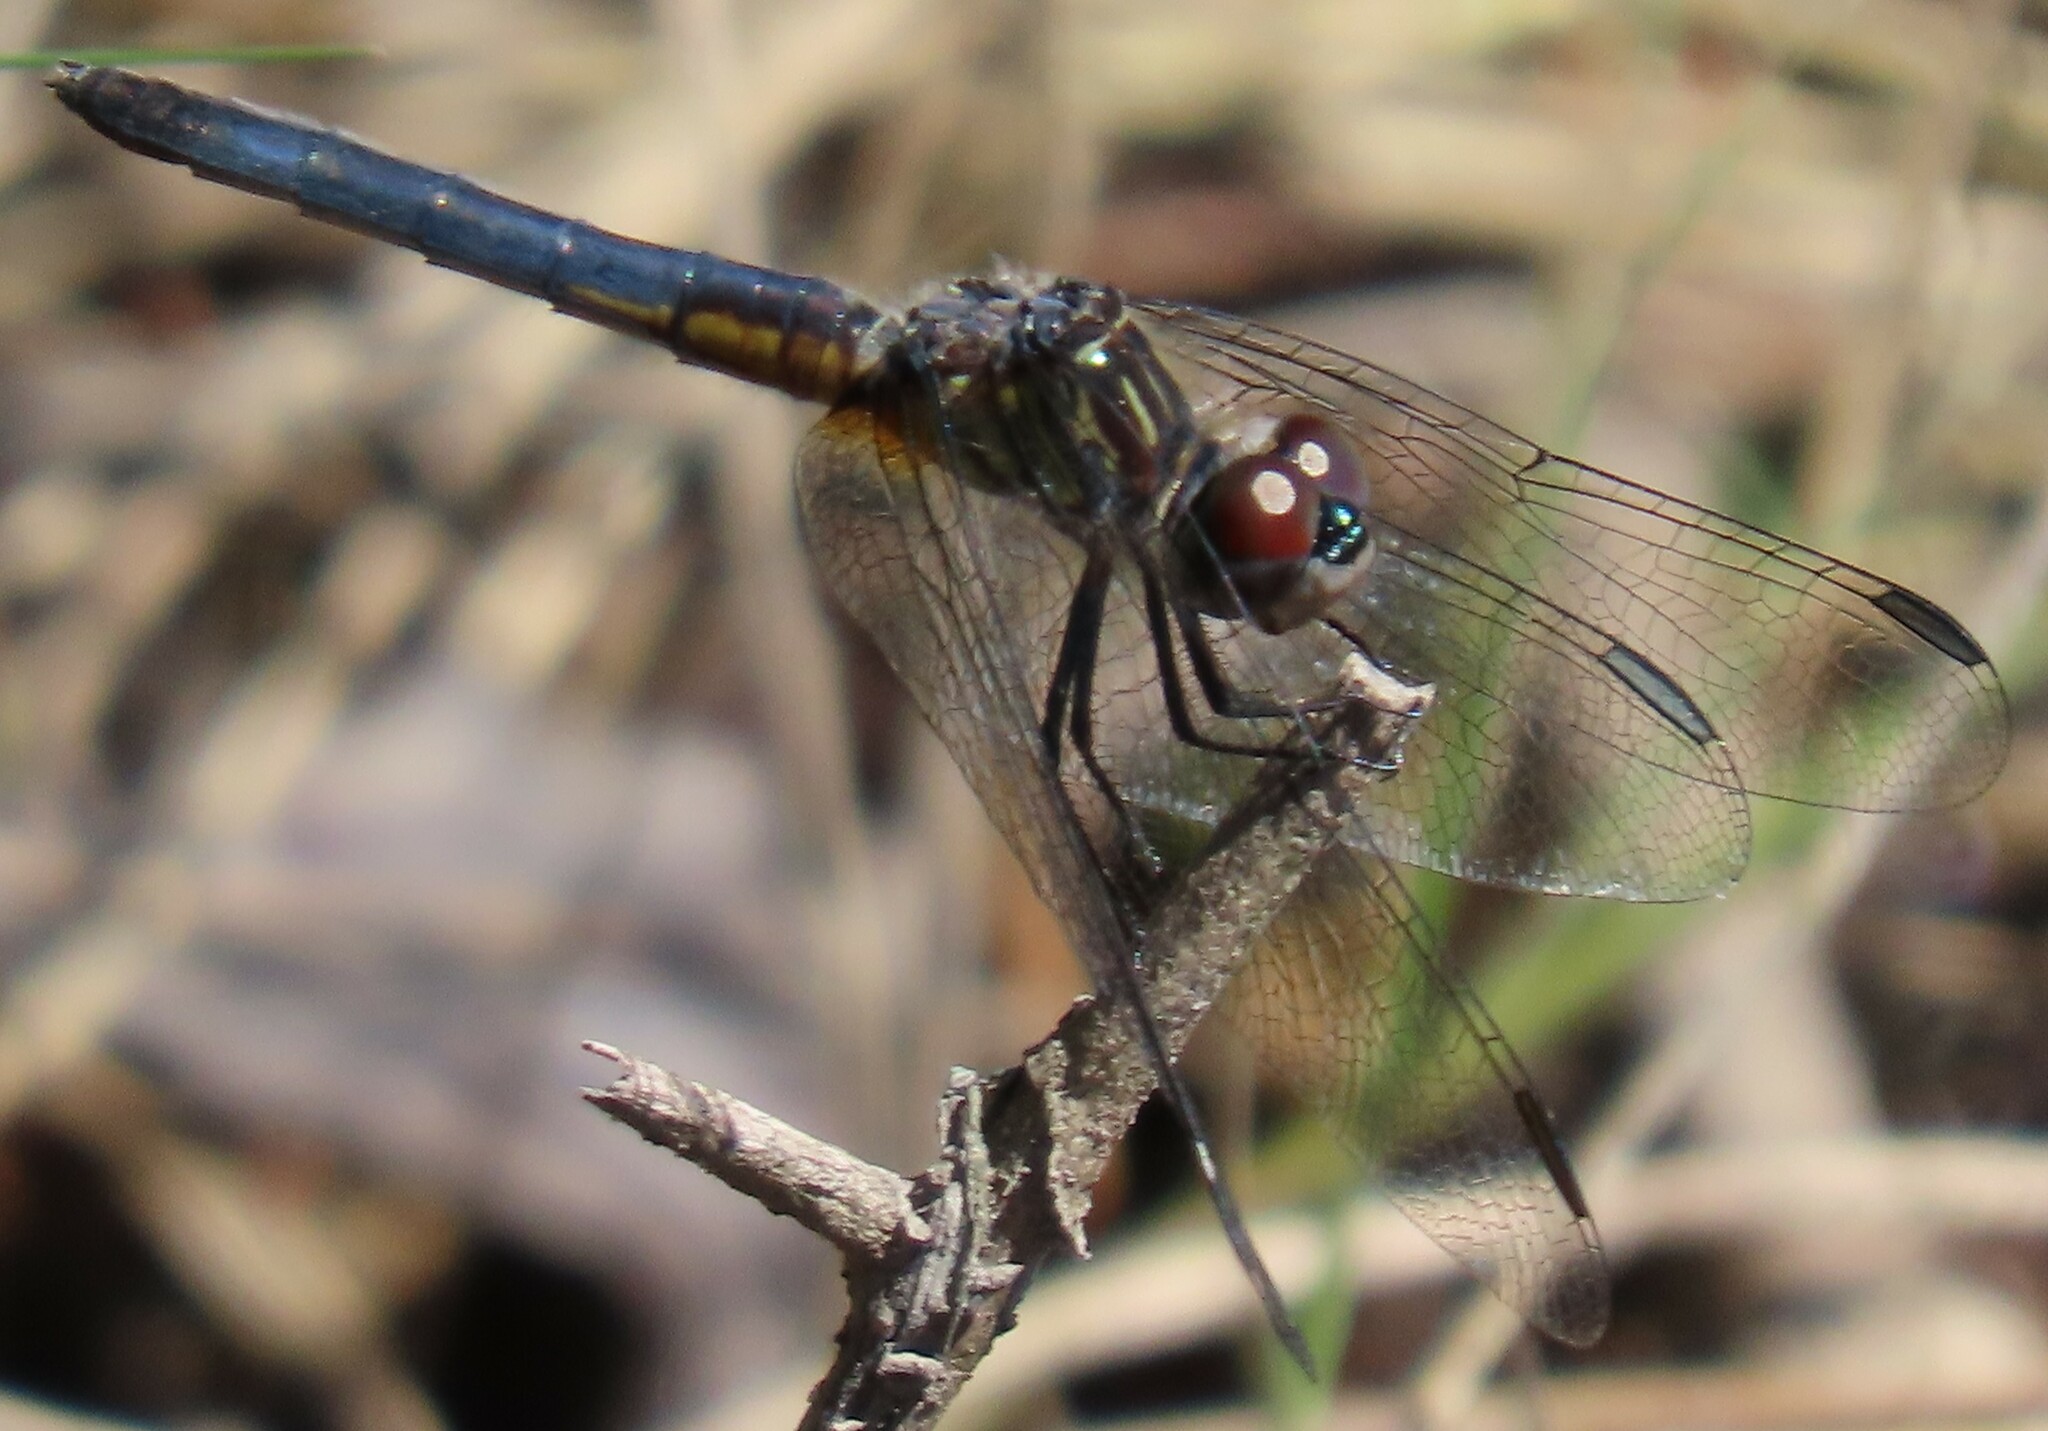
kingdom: Animalia
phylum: Arthropoda
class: Insecta
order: Odonata
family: Libellulidae
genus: Pachydiplax
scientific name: Pachydiplax longipennis
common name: Blue dasher
